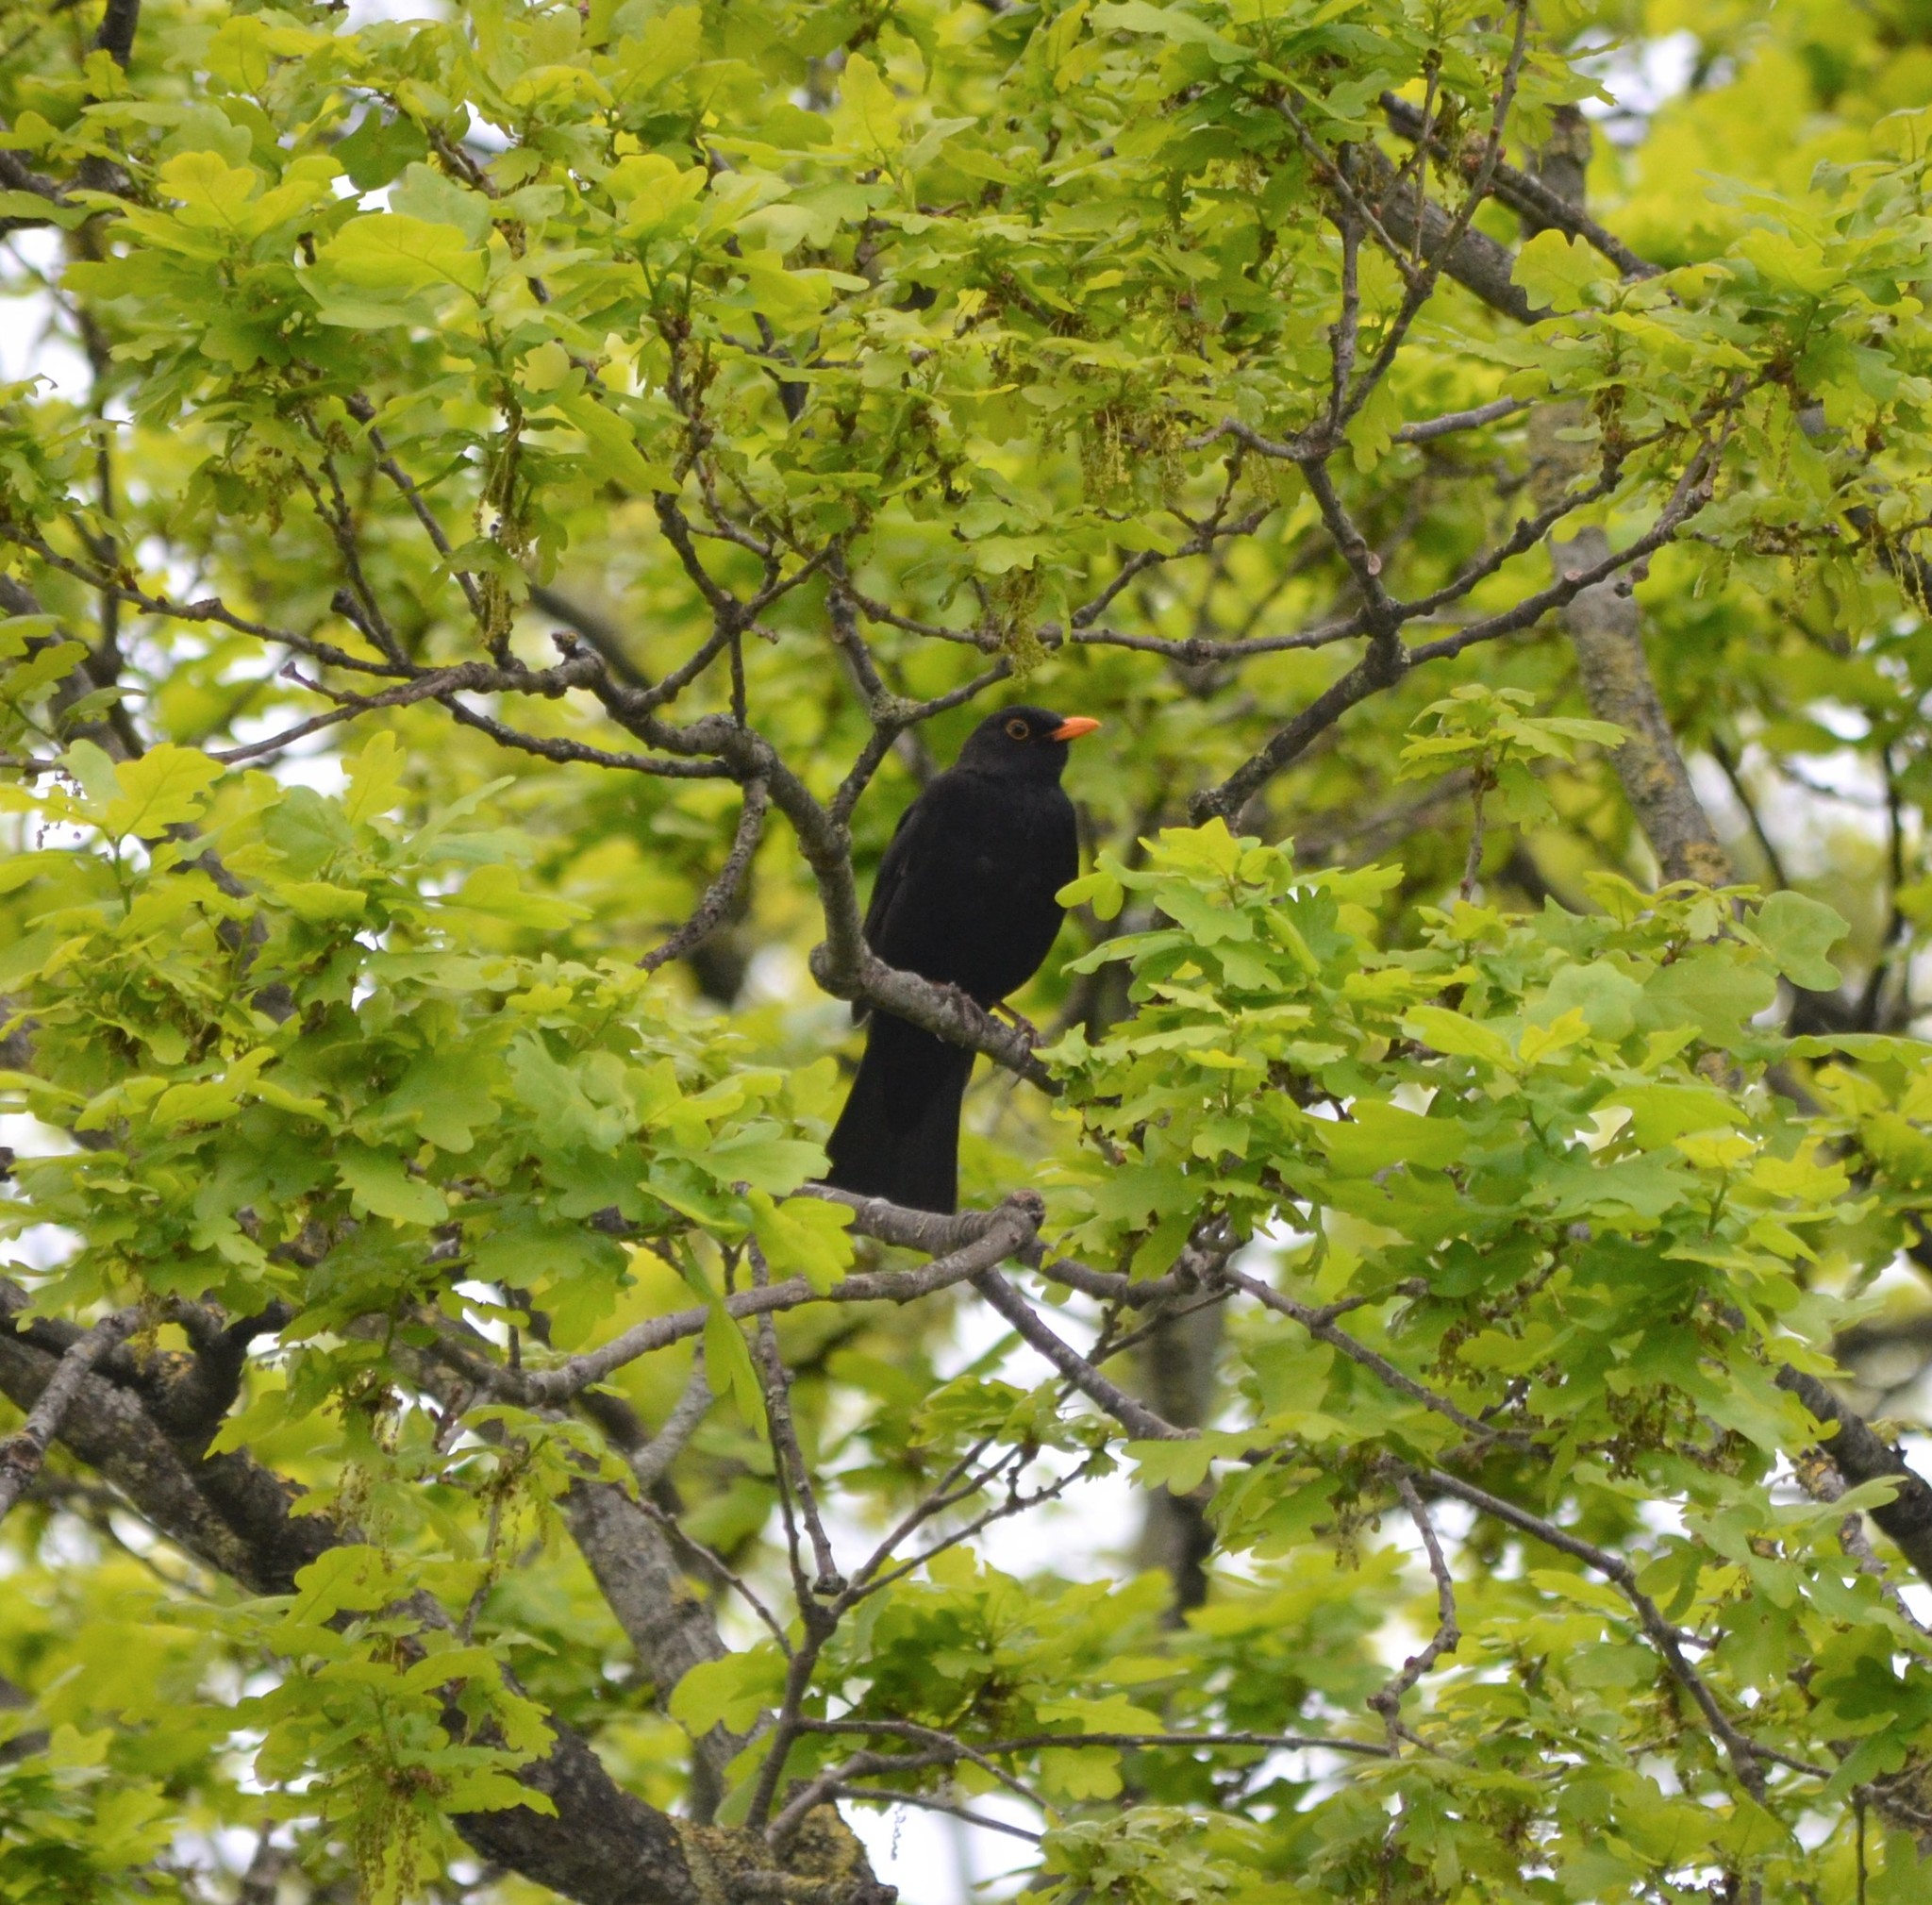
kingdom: Animalia
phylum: Chordata
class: Aves
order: Passeriformes
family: Turdidae
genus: Turdus
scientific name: Turdus merula
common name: Common blackbird
